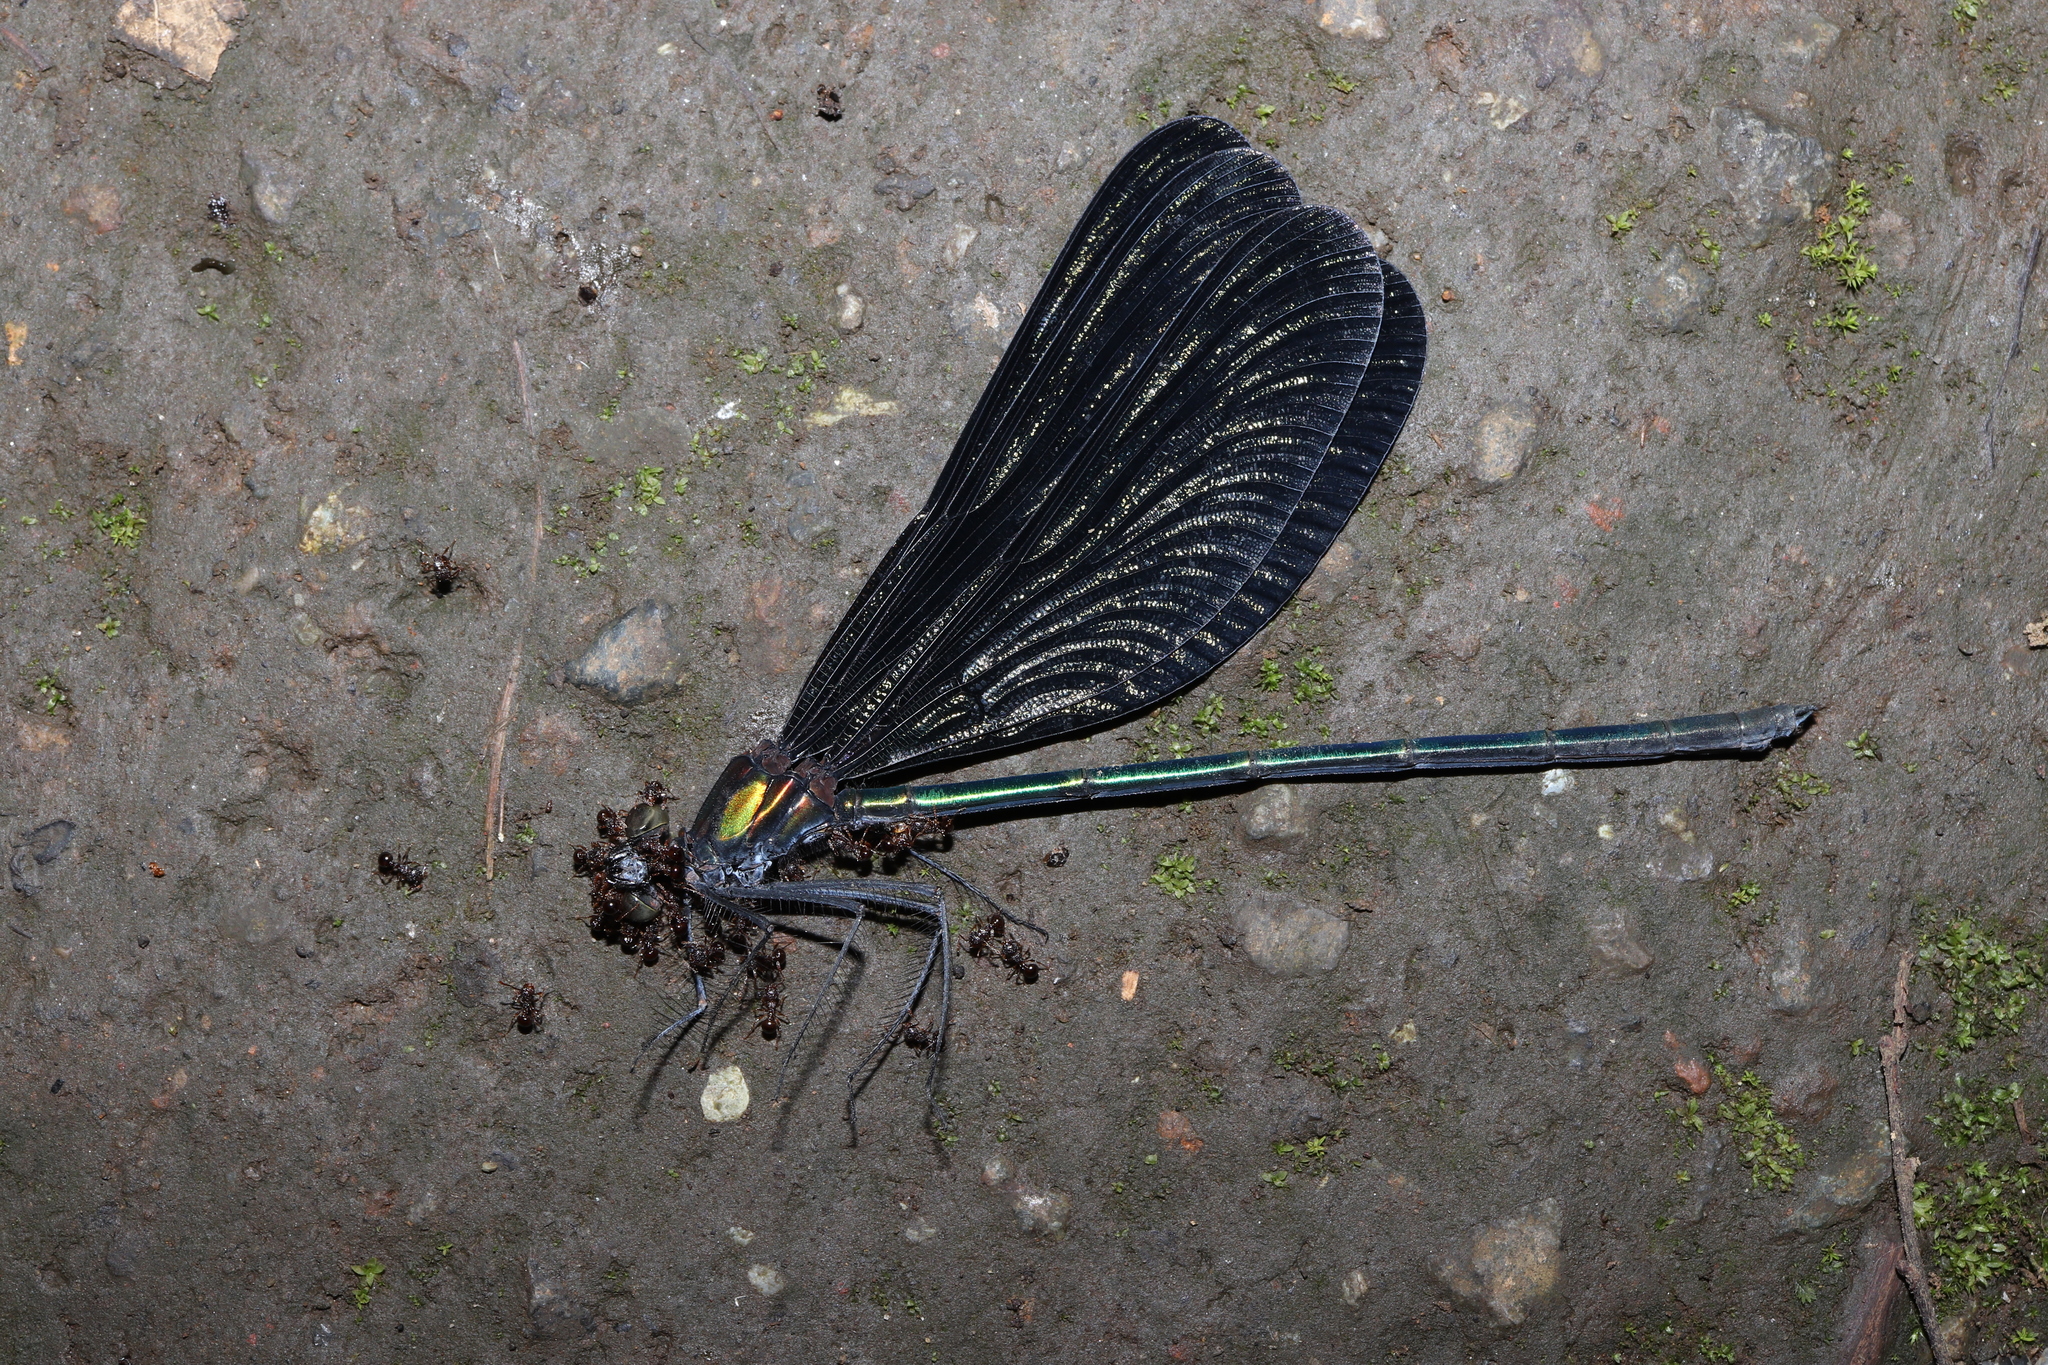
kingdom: Animalia
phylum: Arthropoda
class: Insecta
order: Odonata
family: Calopterygidae
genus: Atrocalopteryx
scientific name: Atrocalopteryx atrata
